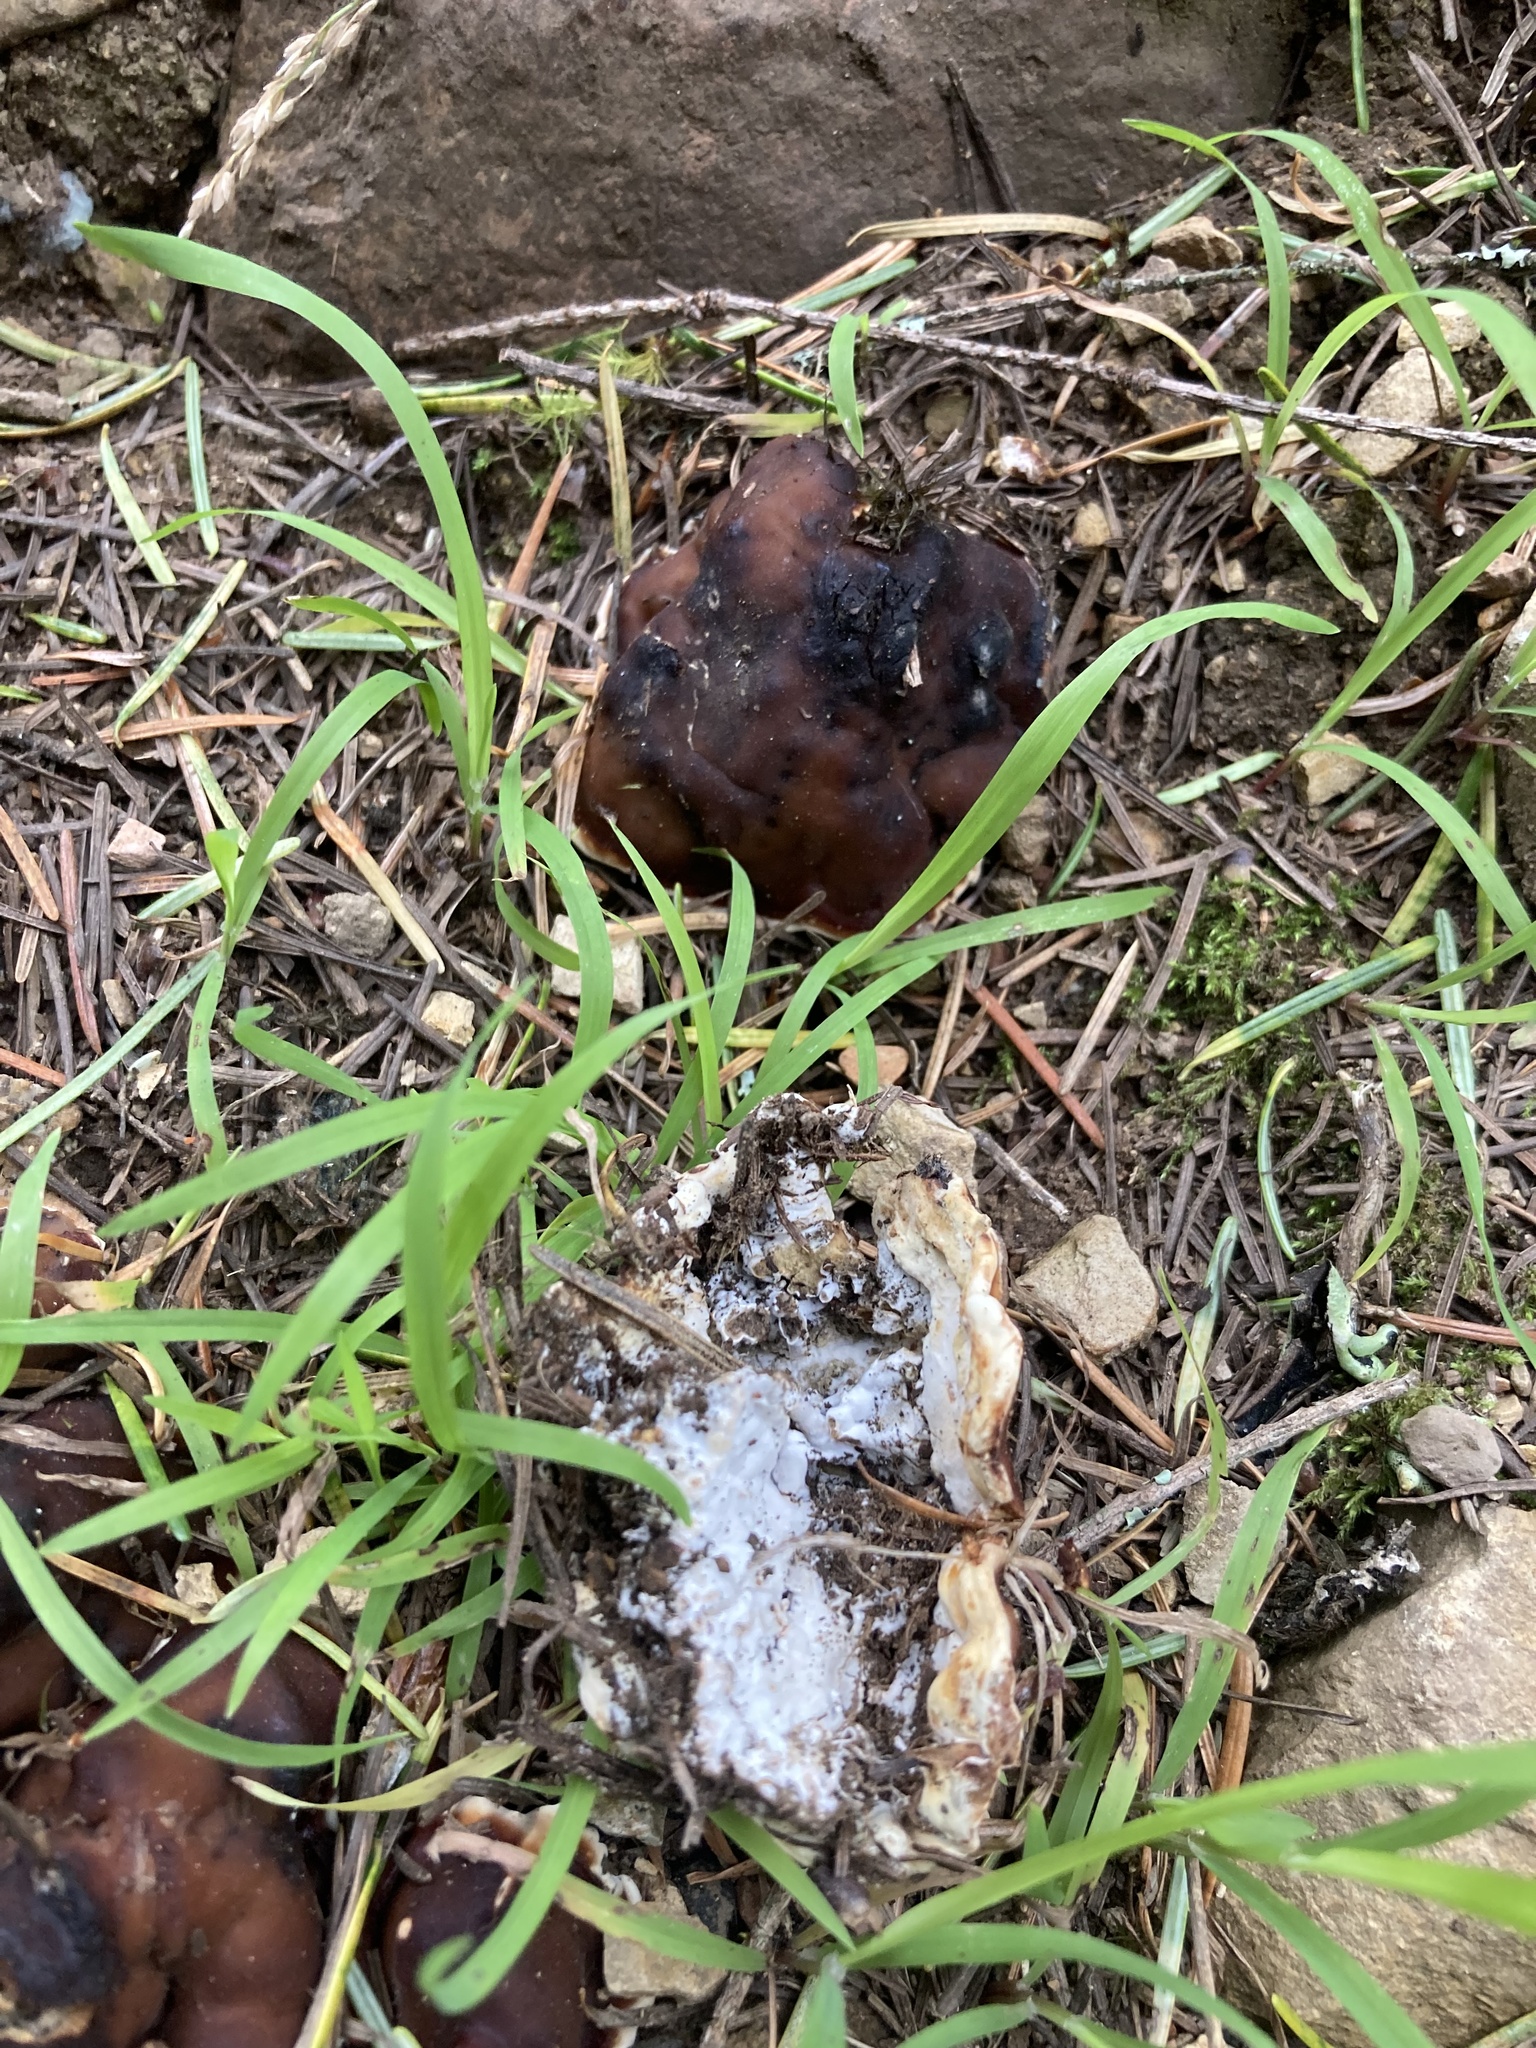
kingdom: Fungi
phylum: Ascomycota
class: Pezizomycetes
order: Pezizales
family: Rhizinaceae
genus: Rhizina
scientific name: Rhizina undulata
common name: Pine firefungus
